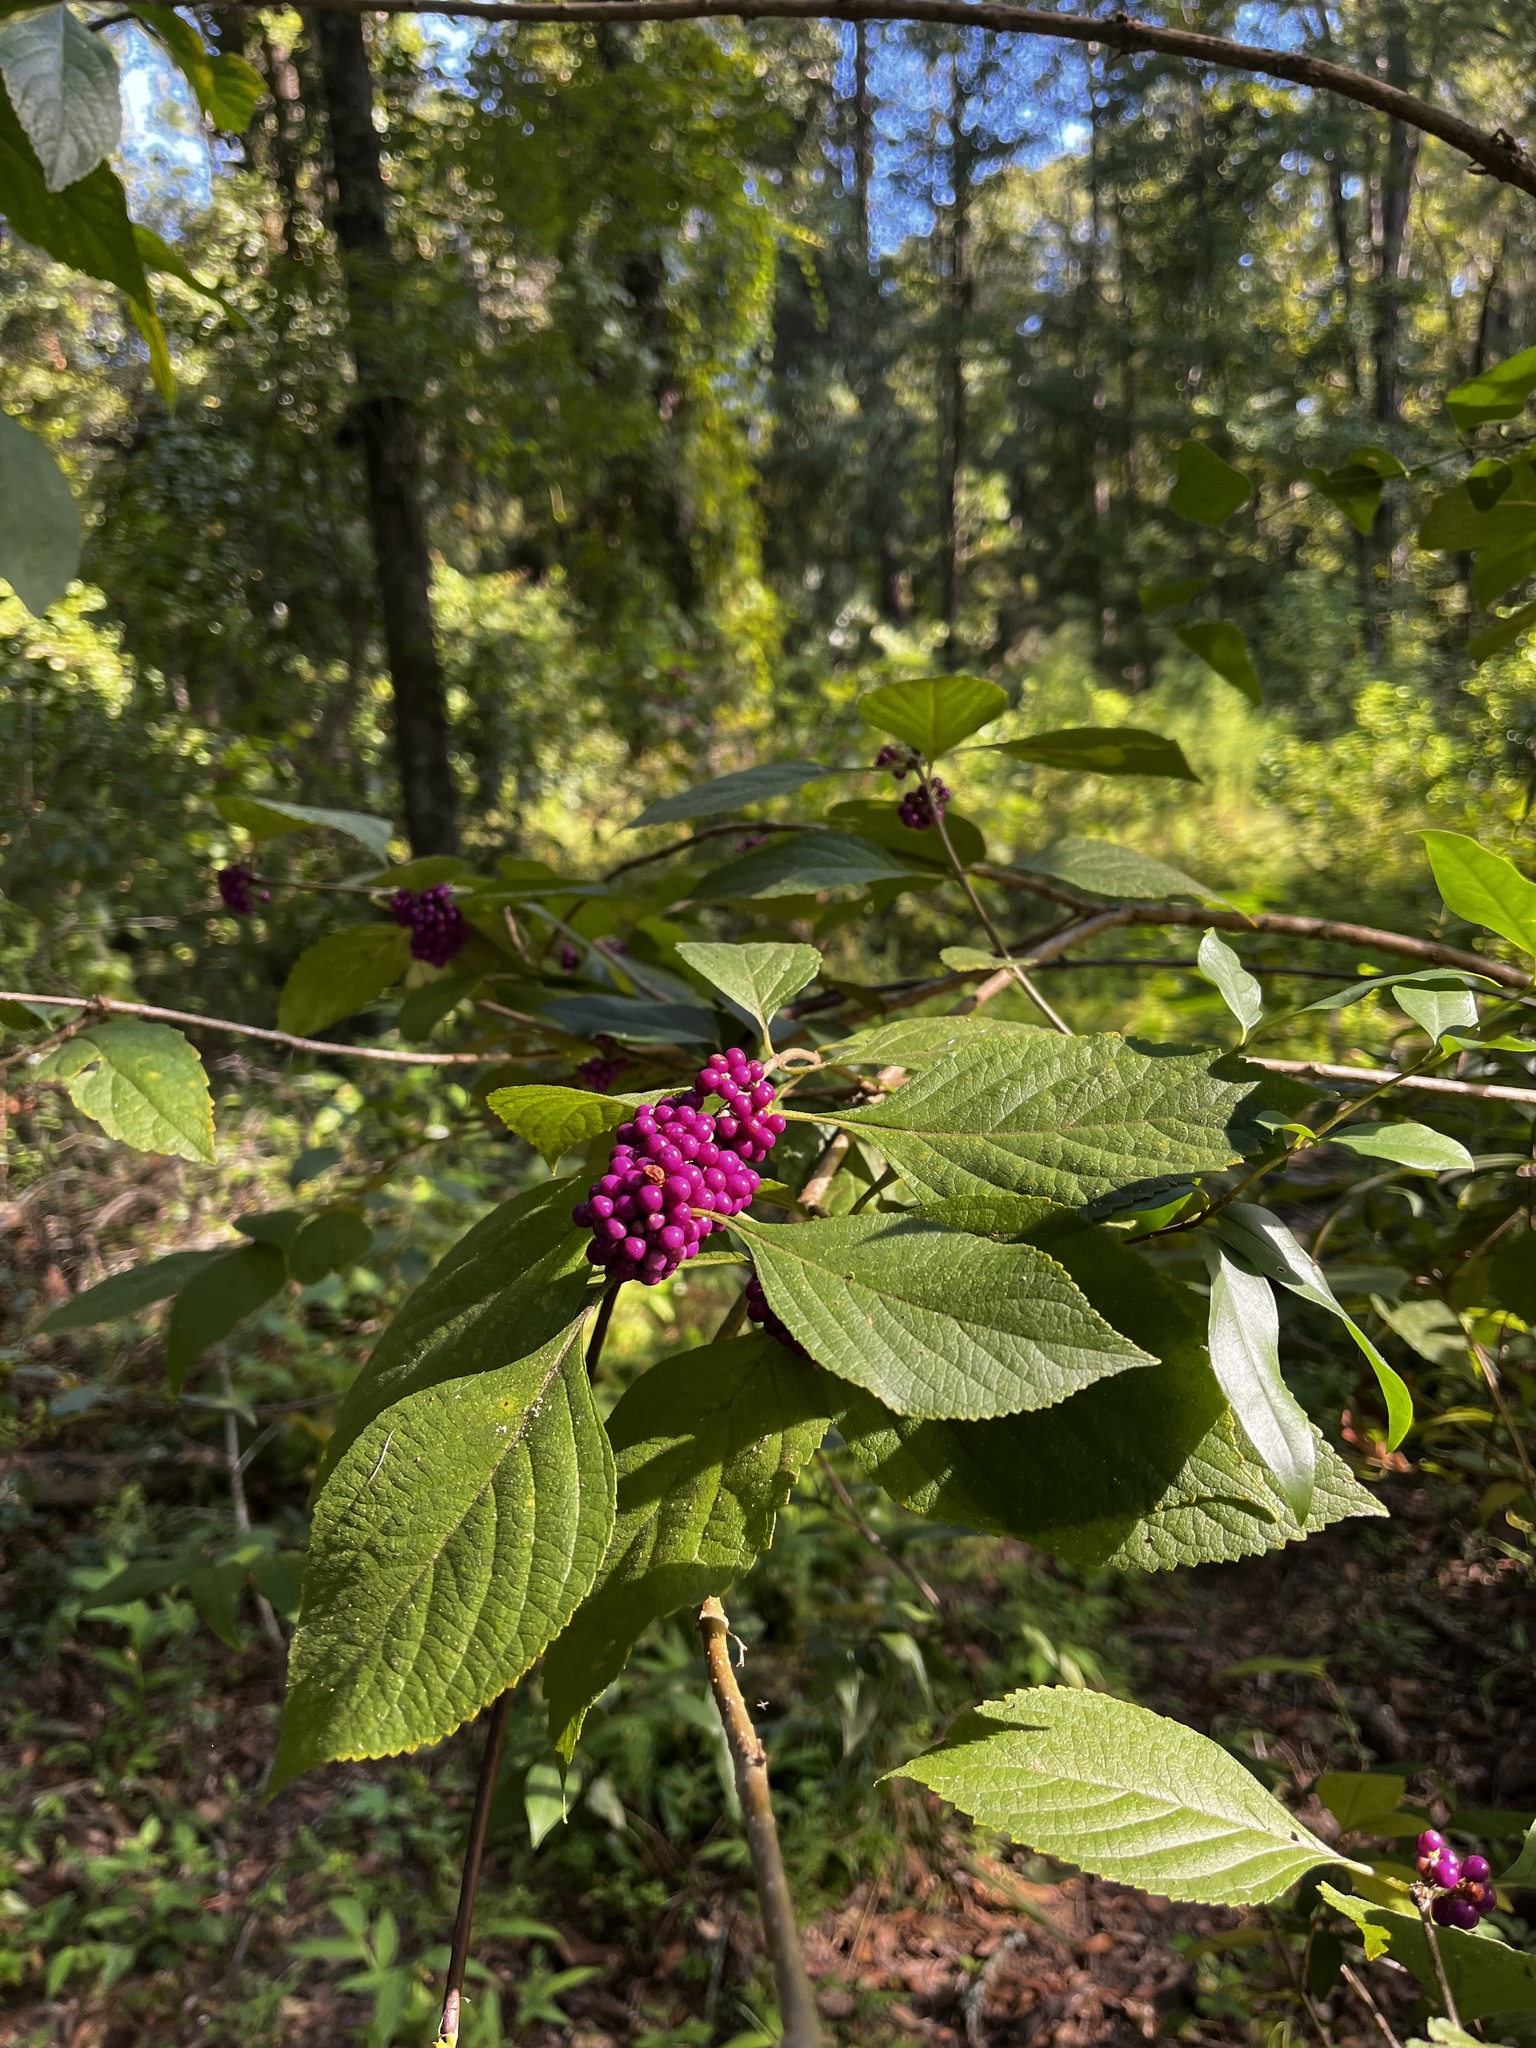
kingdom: Plantae
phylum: Tracheophyta
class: Magnoliopsida
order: Lamiales
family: Lamiaceae
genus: Callicarpa
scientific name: Callicarpa americana
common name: American beautyberry
